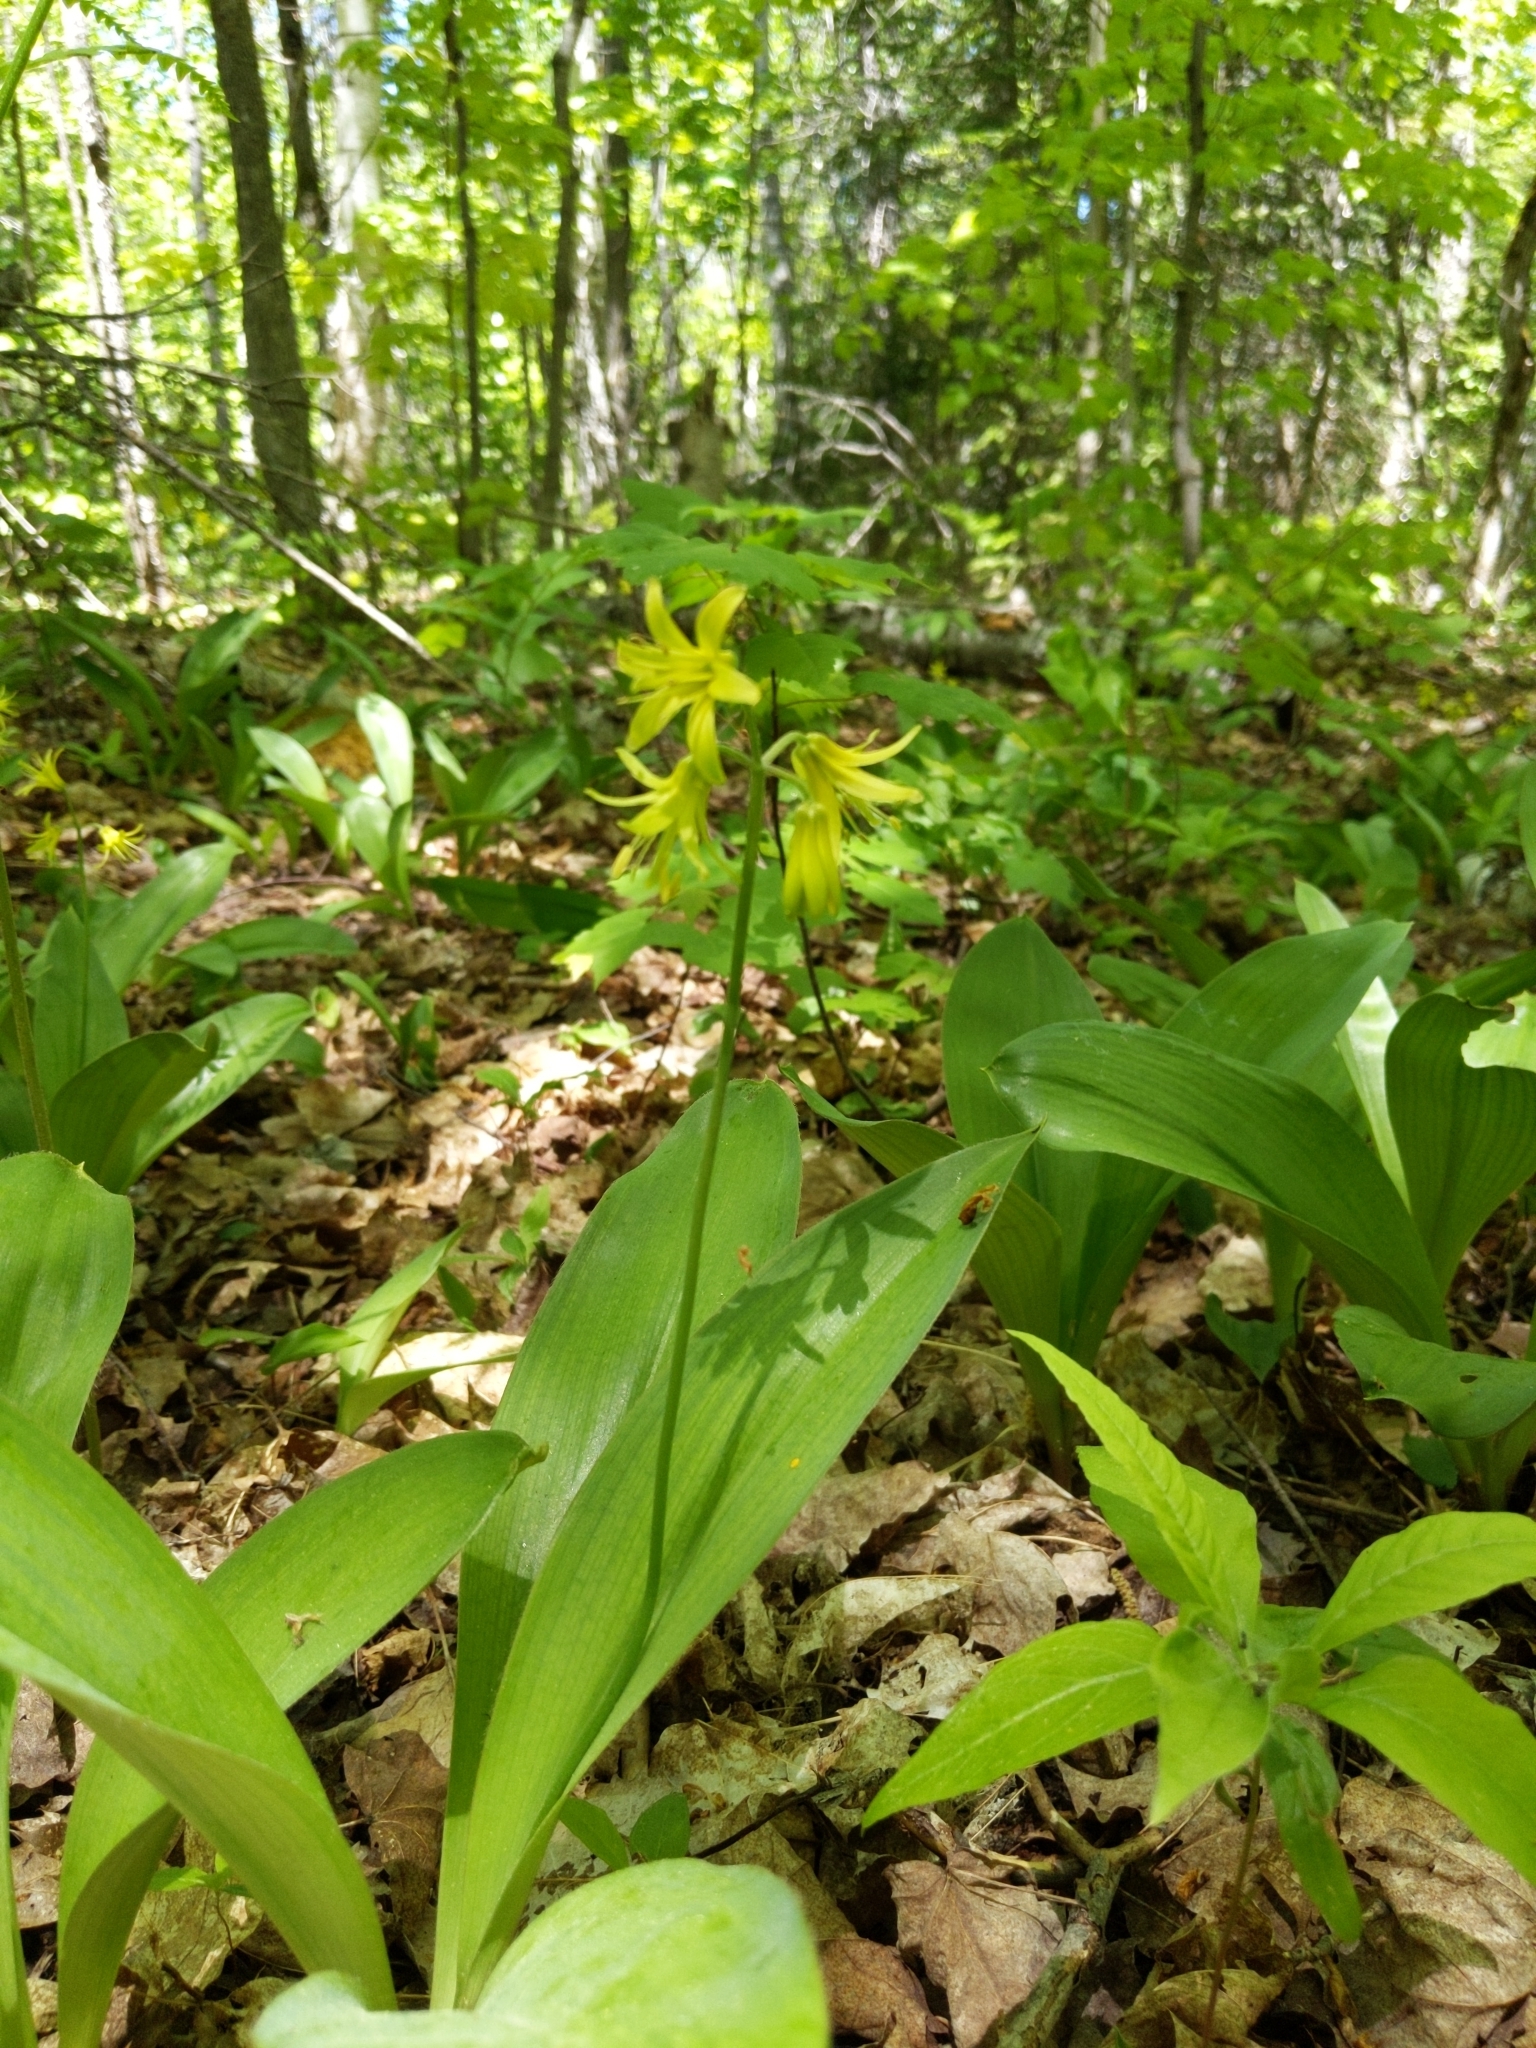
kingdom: Plantae
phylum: Tracheophyta
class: Liliopsida
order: Liliales
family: Liliaceae
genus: Clintonia
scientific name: Clintonia borealis
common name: Yellow clintonia
